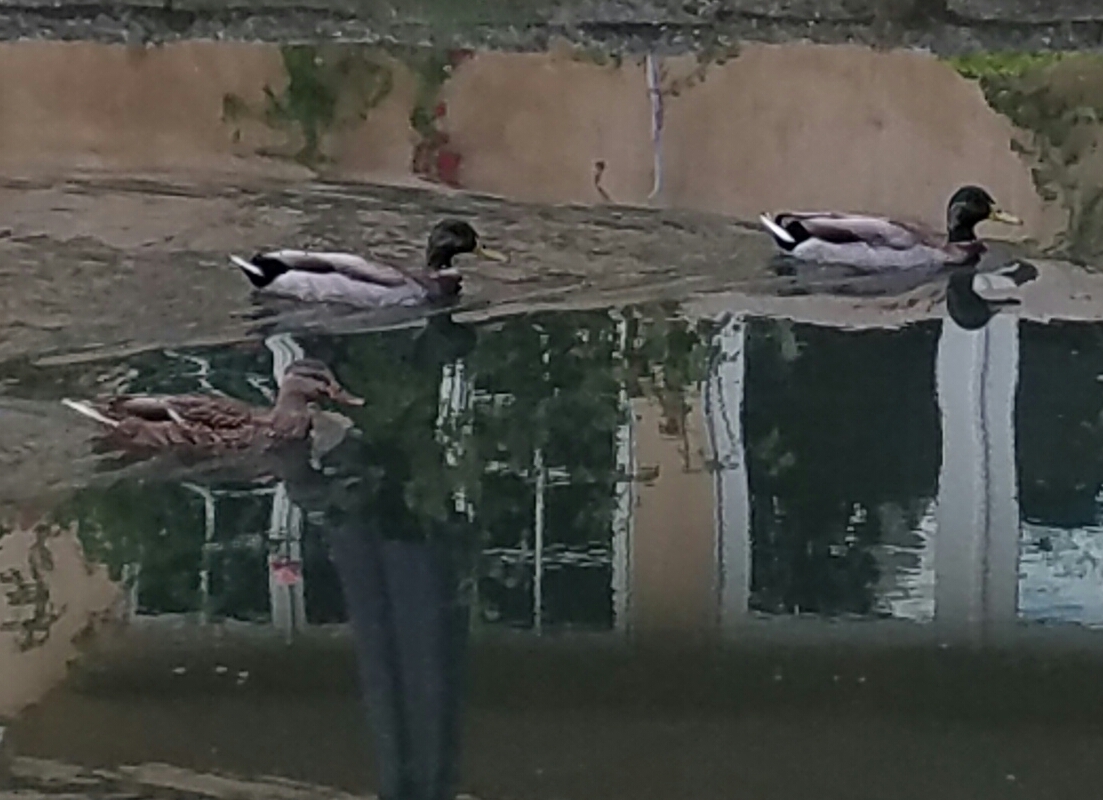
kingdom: Animalia
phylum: Chordata
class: Aves
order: Anseriformes
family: Anatidae
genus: Anas
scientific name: Anas platyrhynchos
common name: Mallard
